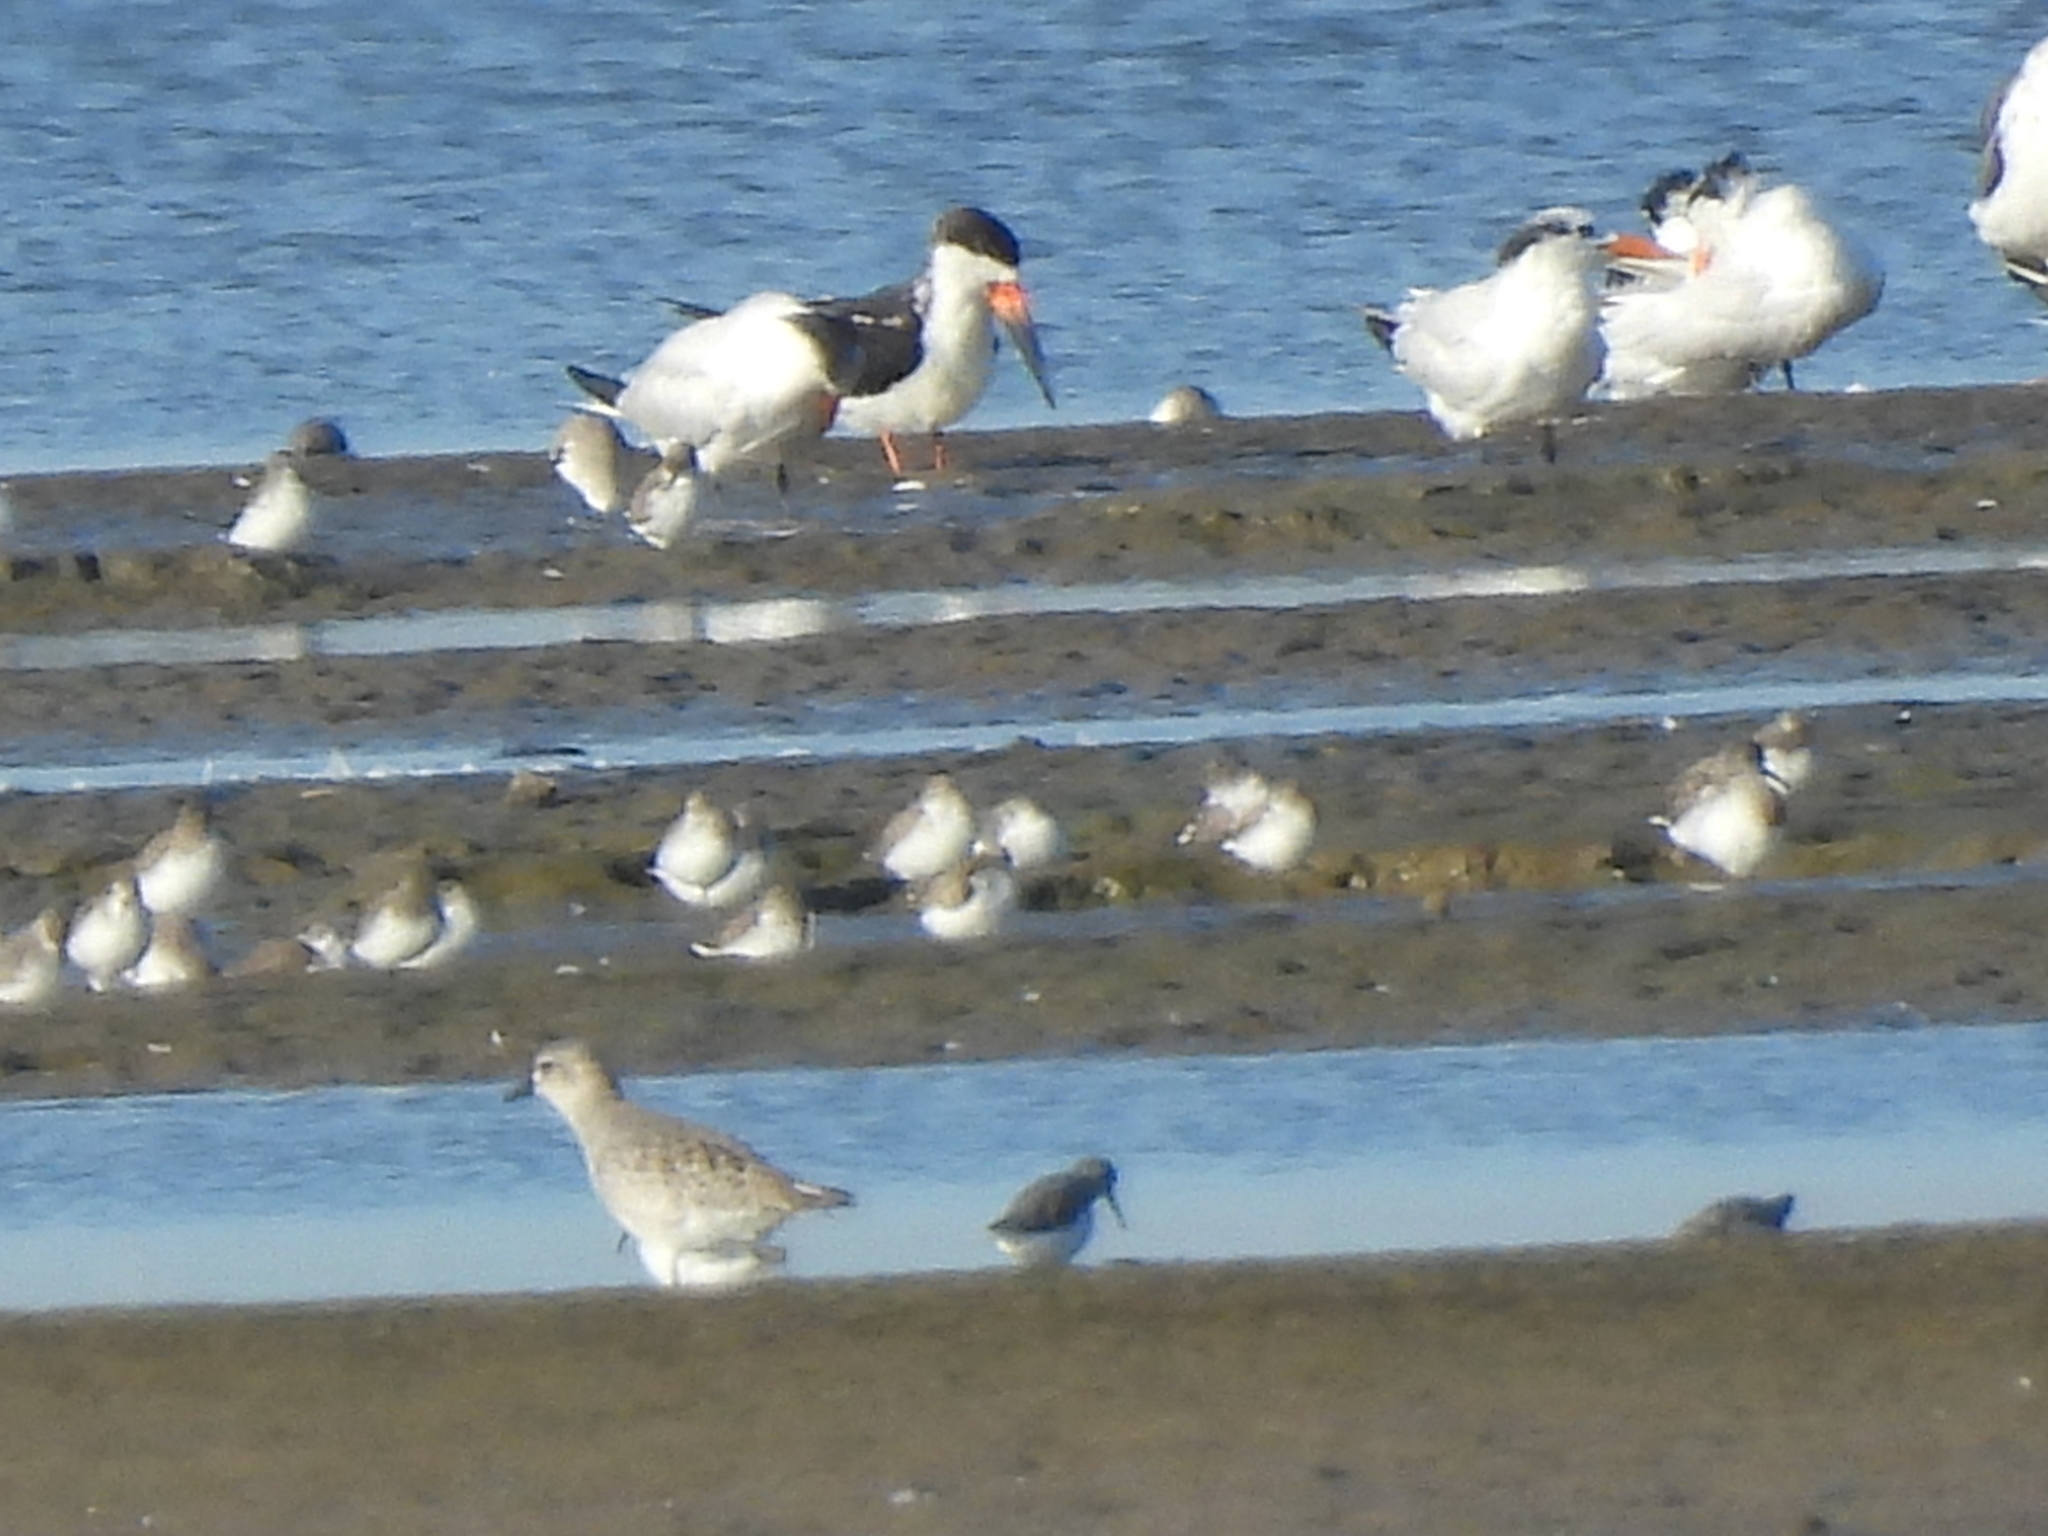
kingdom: Animalia
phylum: Chordata
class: Aves
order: Charadriiformes
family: Laridae
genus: Rynchops
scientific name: Rynchops niger
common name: Black skimmer
